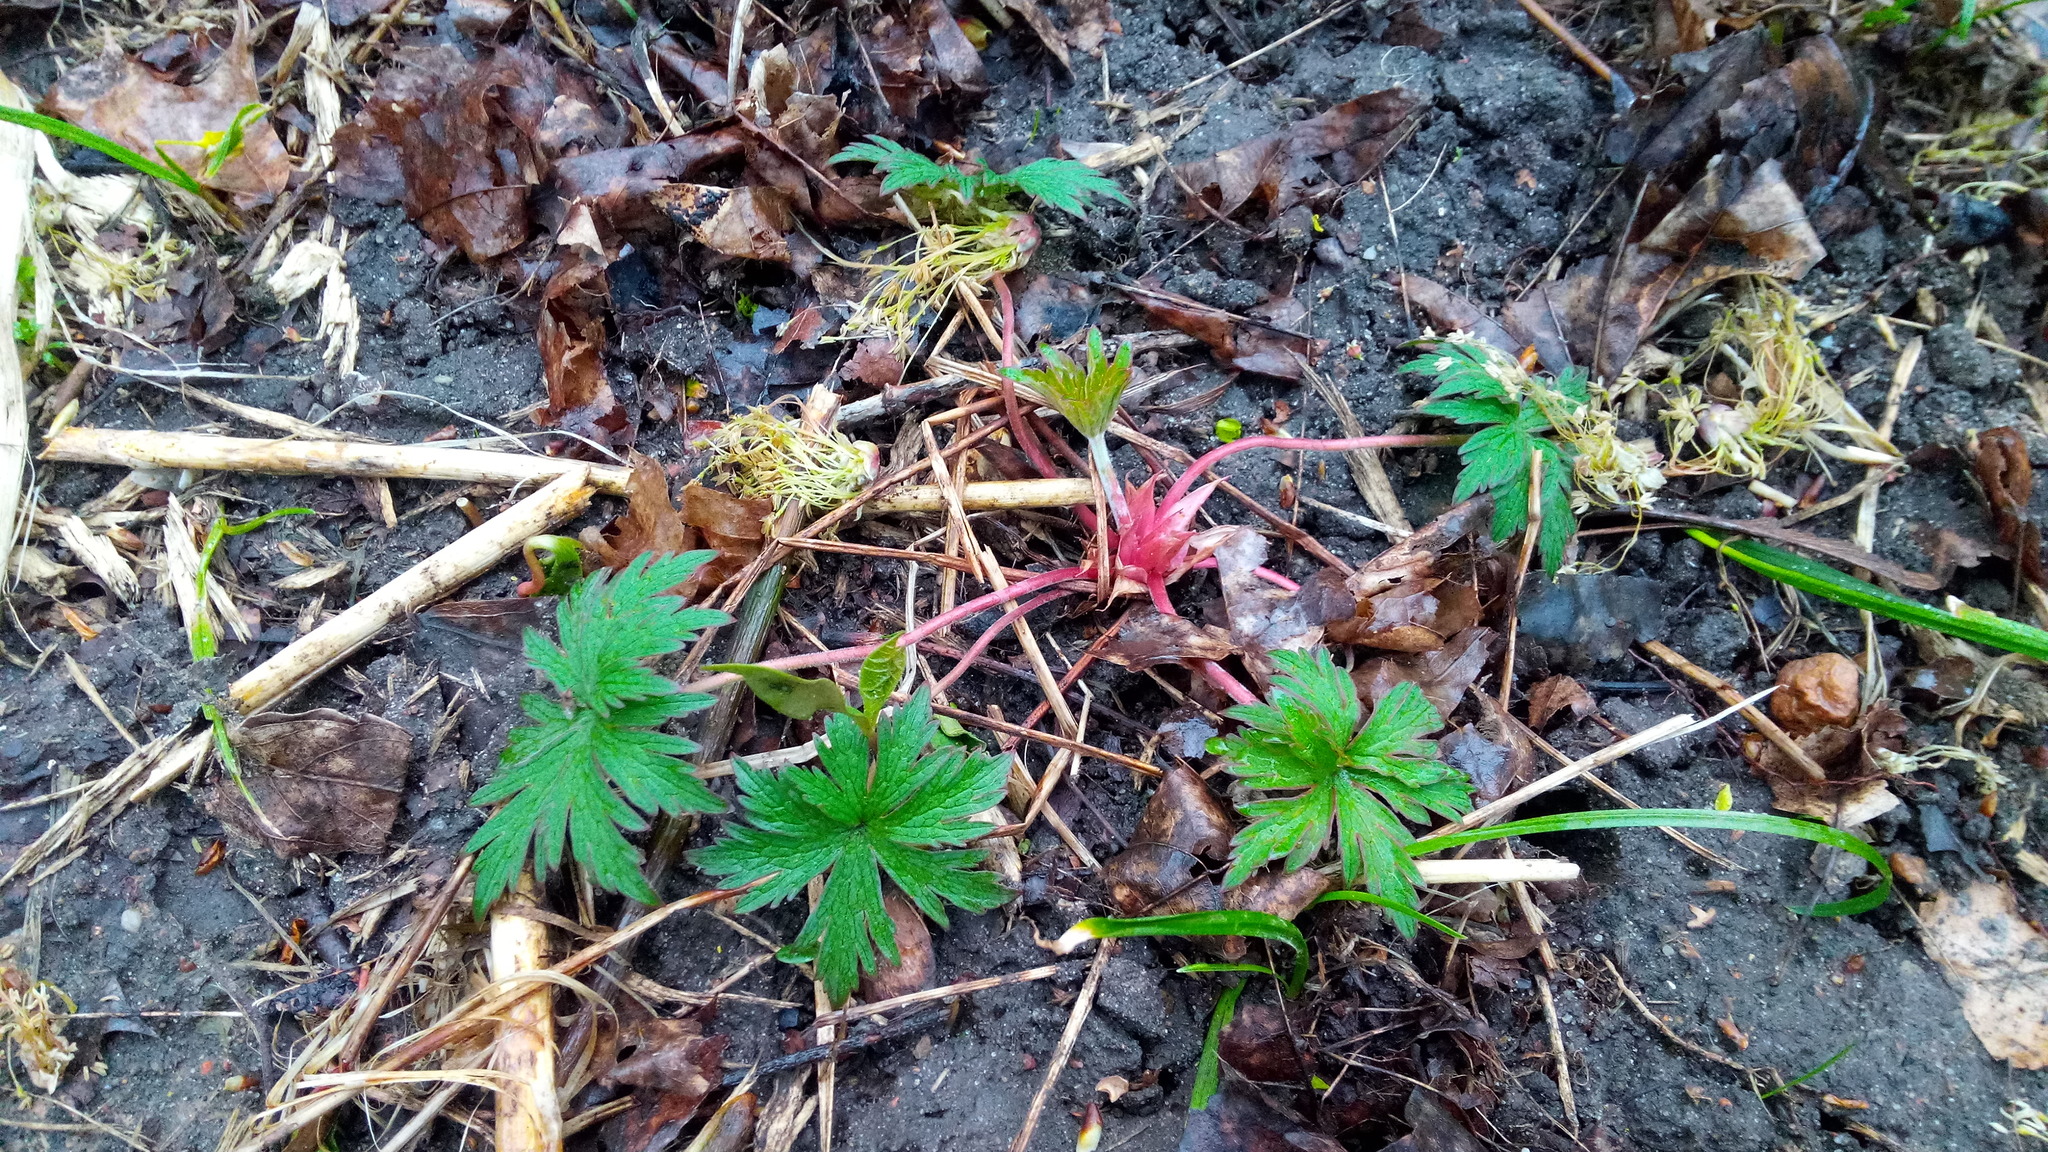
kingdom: Plantae
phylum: Tracheophyta
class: Magnoliopsida
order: Geraniales
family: Geraniaceae
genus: Geranium
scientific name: Geranium pratense
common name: Meadow crane's-bill
